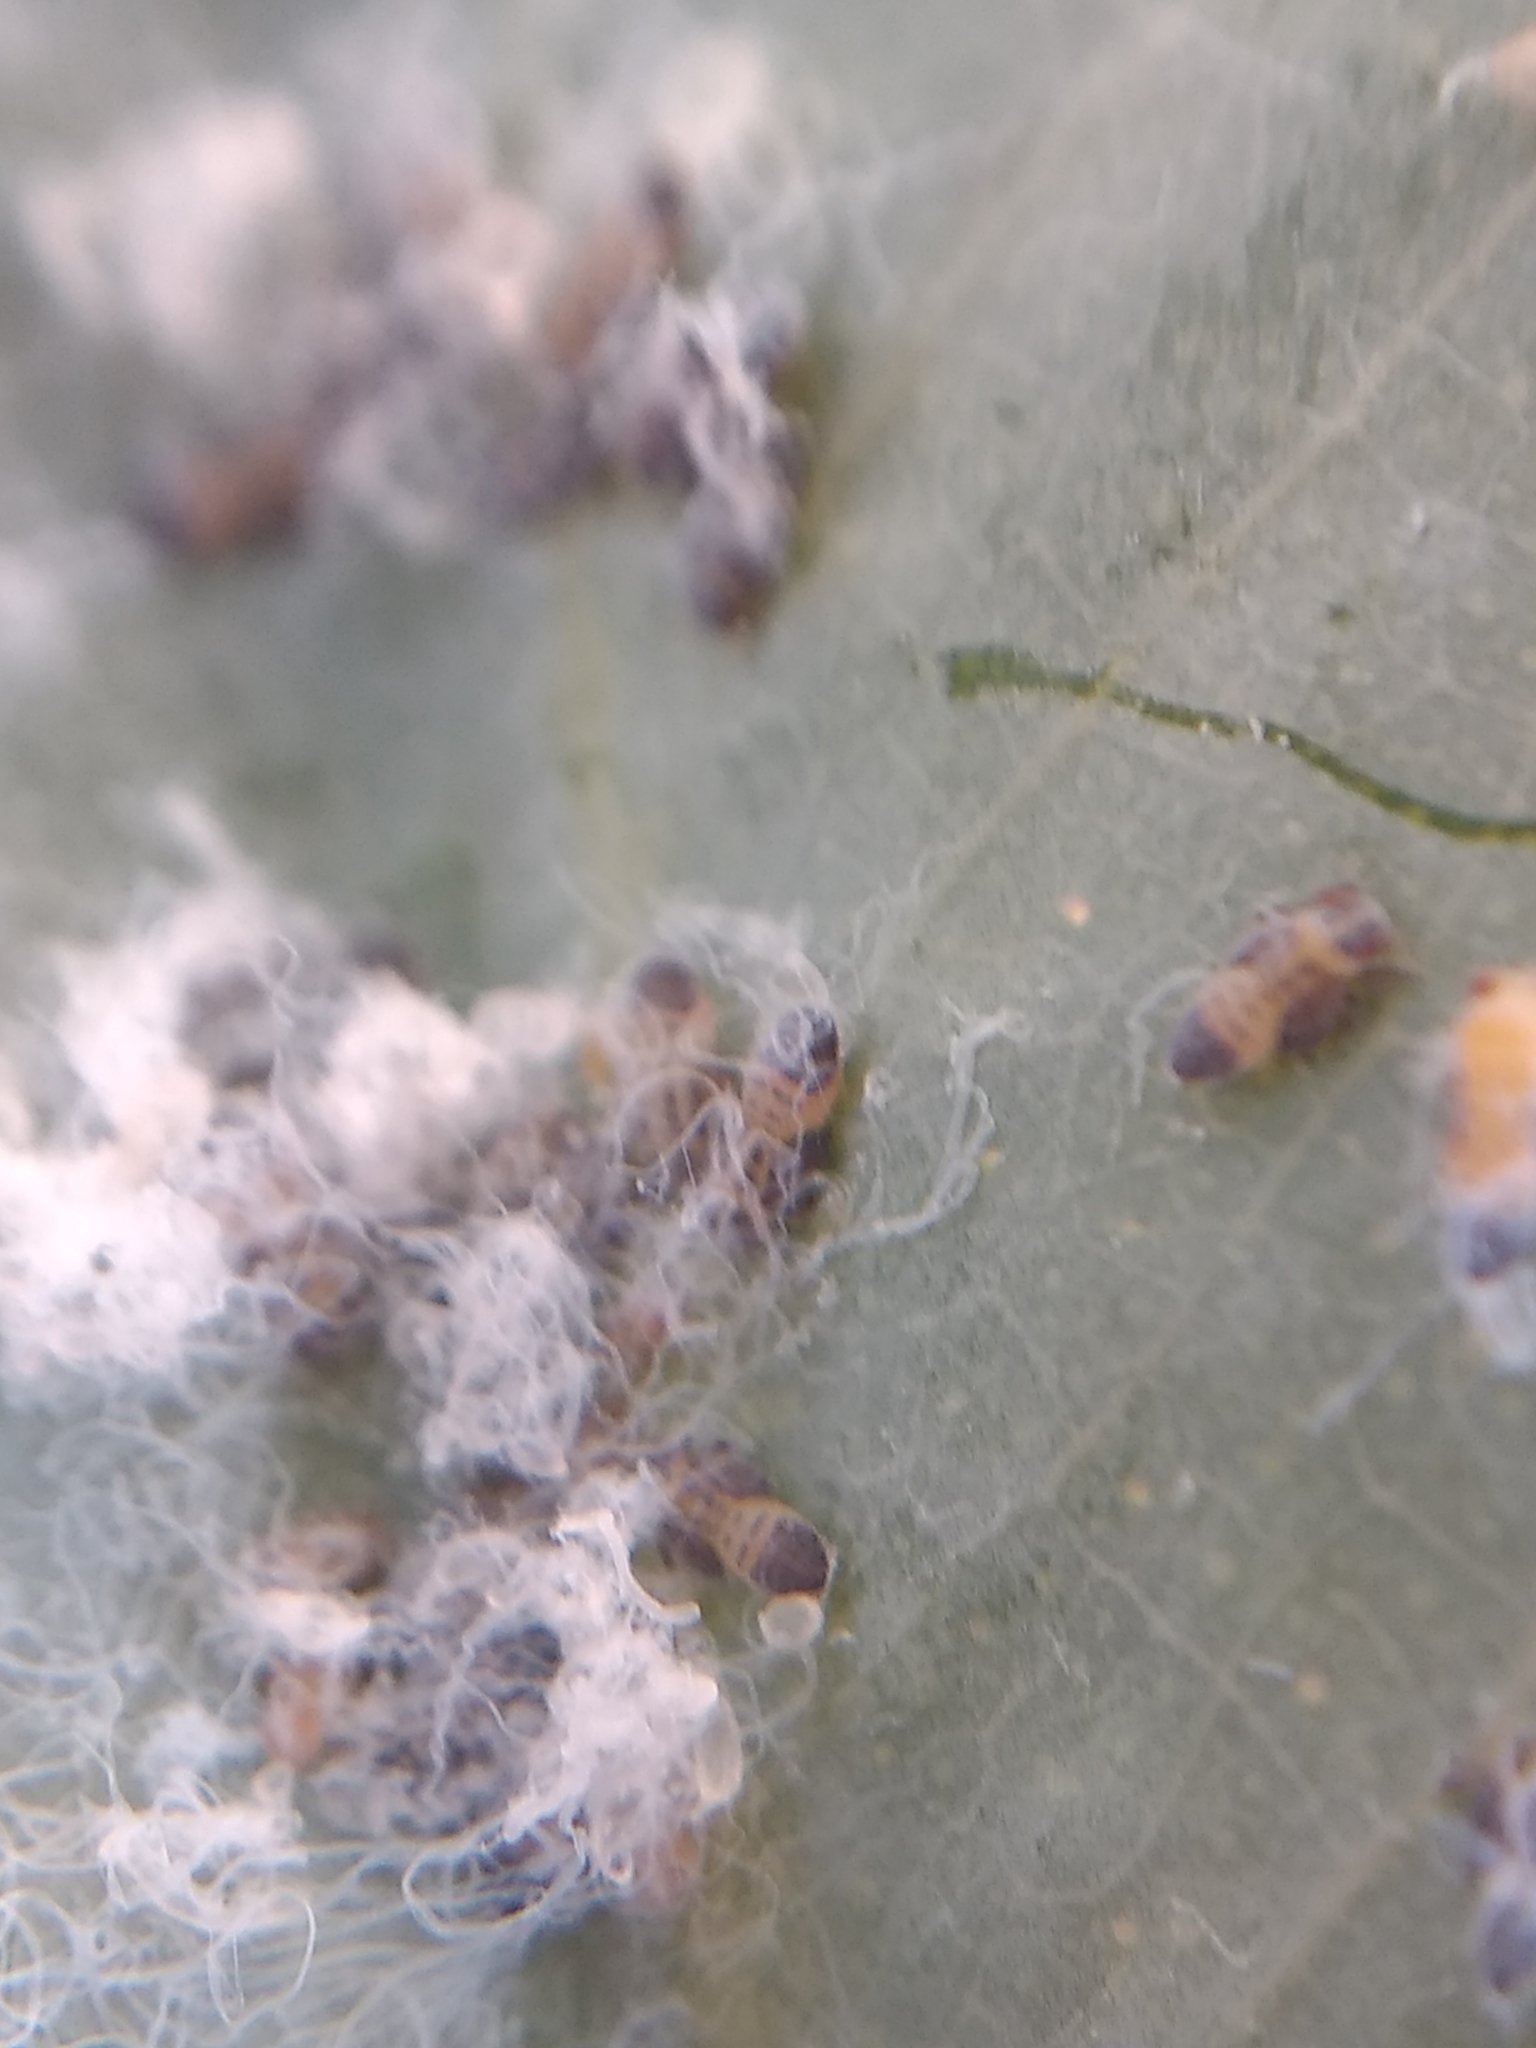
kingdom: Animalia
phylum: Arthropoda
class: Insecta
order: Hemiptera
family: Aphalaridae
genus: Ctenarytaina
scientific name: Ctenarytaina eucalypti
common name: Blue gum psyllid
